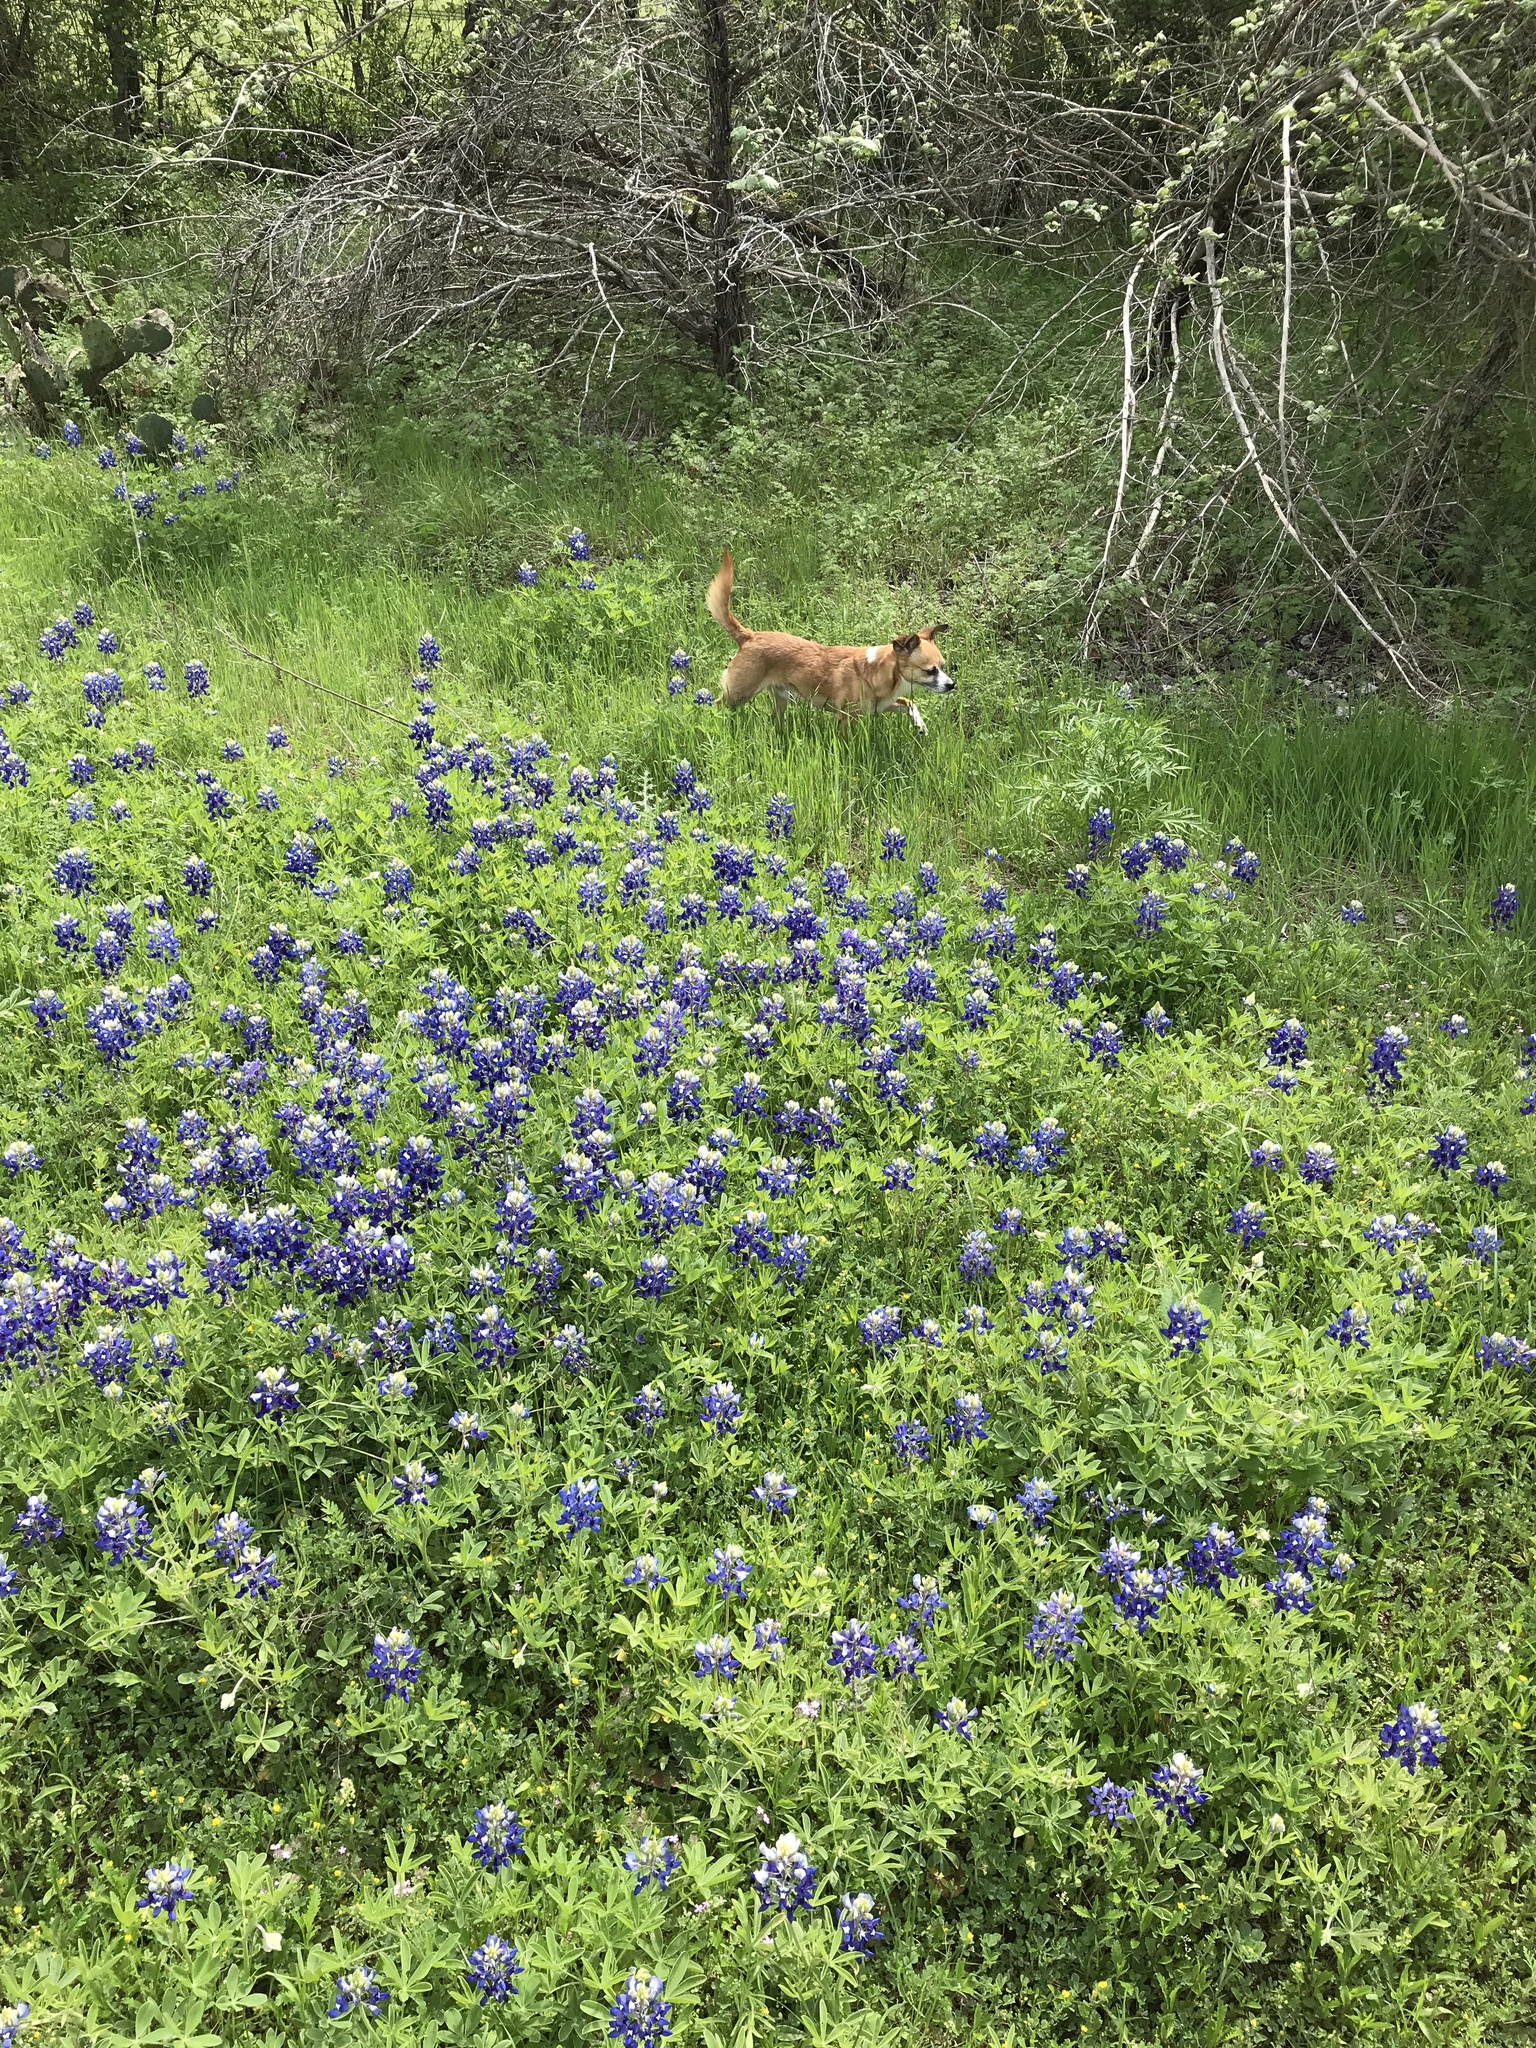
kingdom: Plantae
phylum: Tracheophyta
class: Magnoliopsida
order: Fabales
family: Fabaceae
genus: Lupinus
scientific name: Lupinus texensis
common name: Texas bluebonnet
